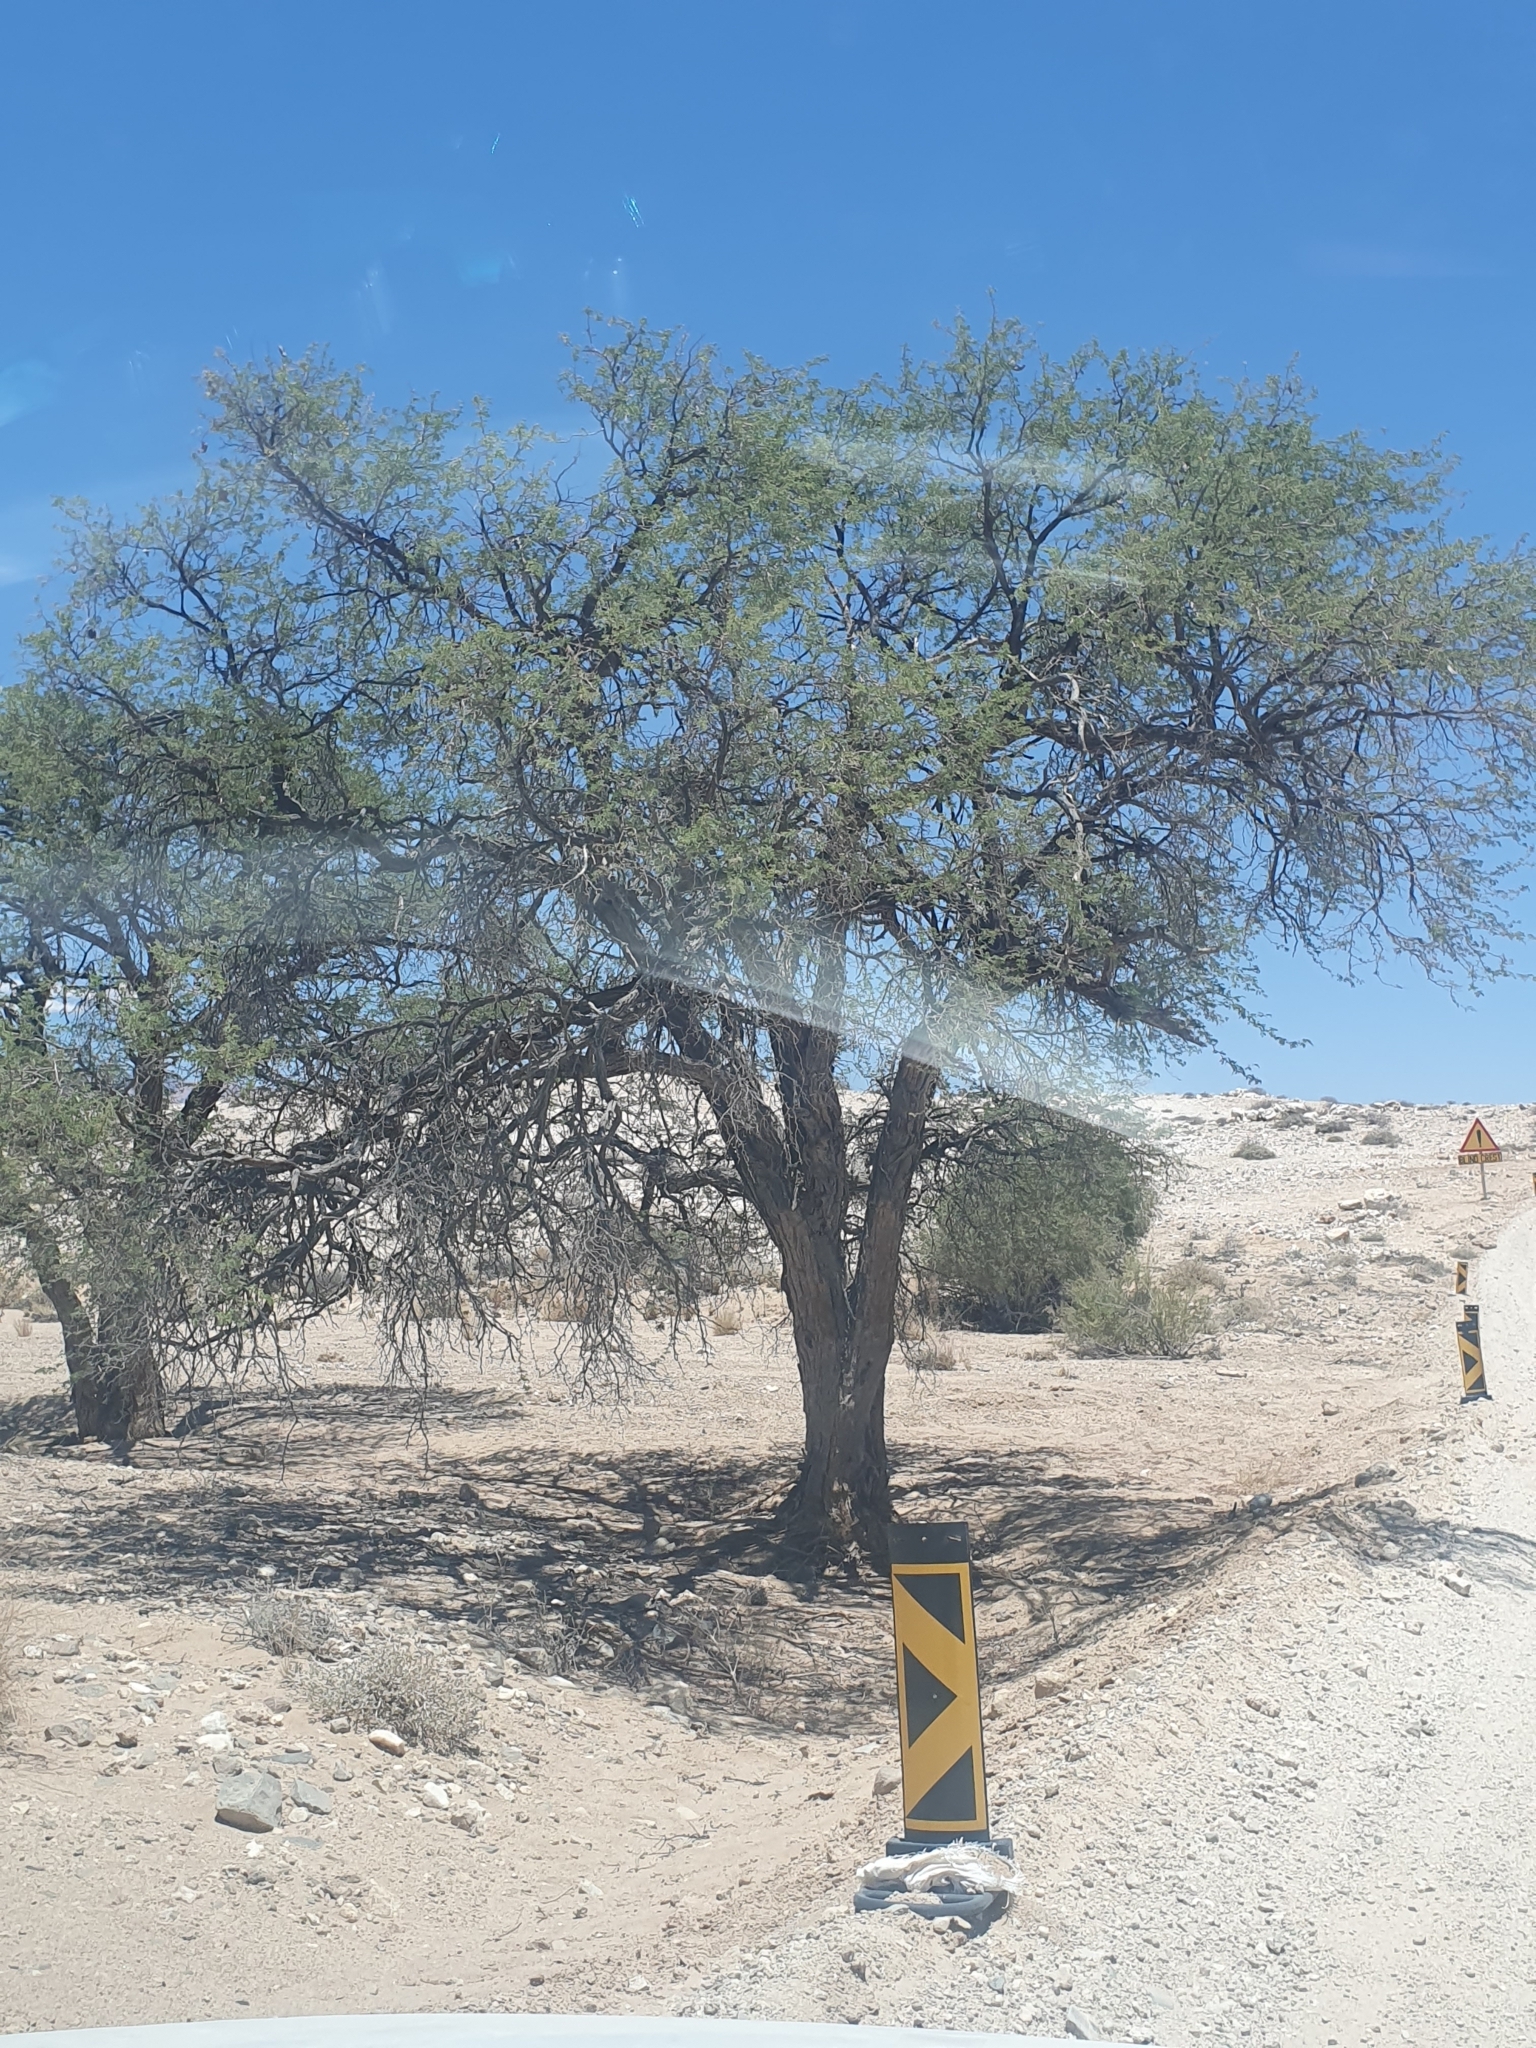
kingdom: Plantae
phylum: Tracheophyta
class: Magnoliopsida
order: Fabales
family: Fabaceae
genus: Vachellia
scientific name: Vachellia erioloba
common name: Camel thorn
